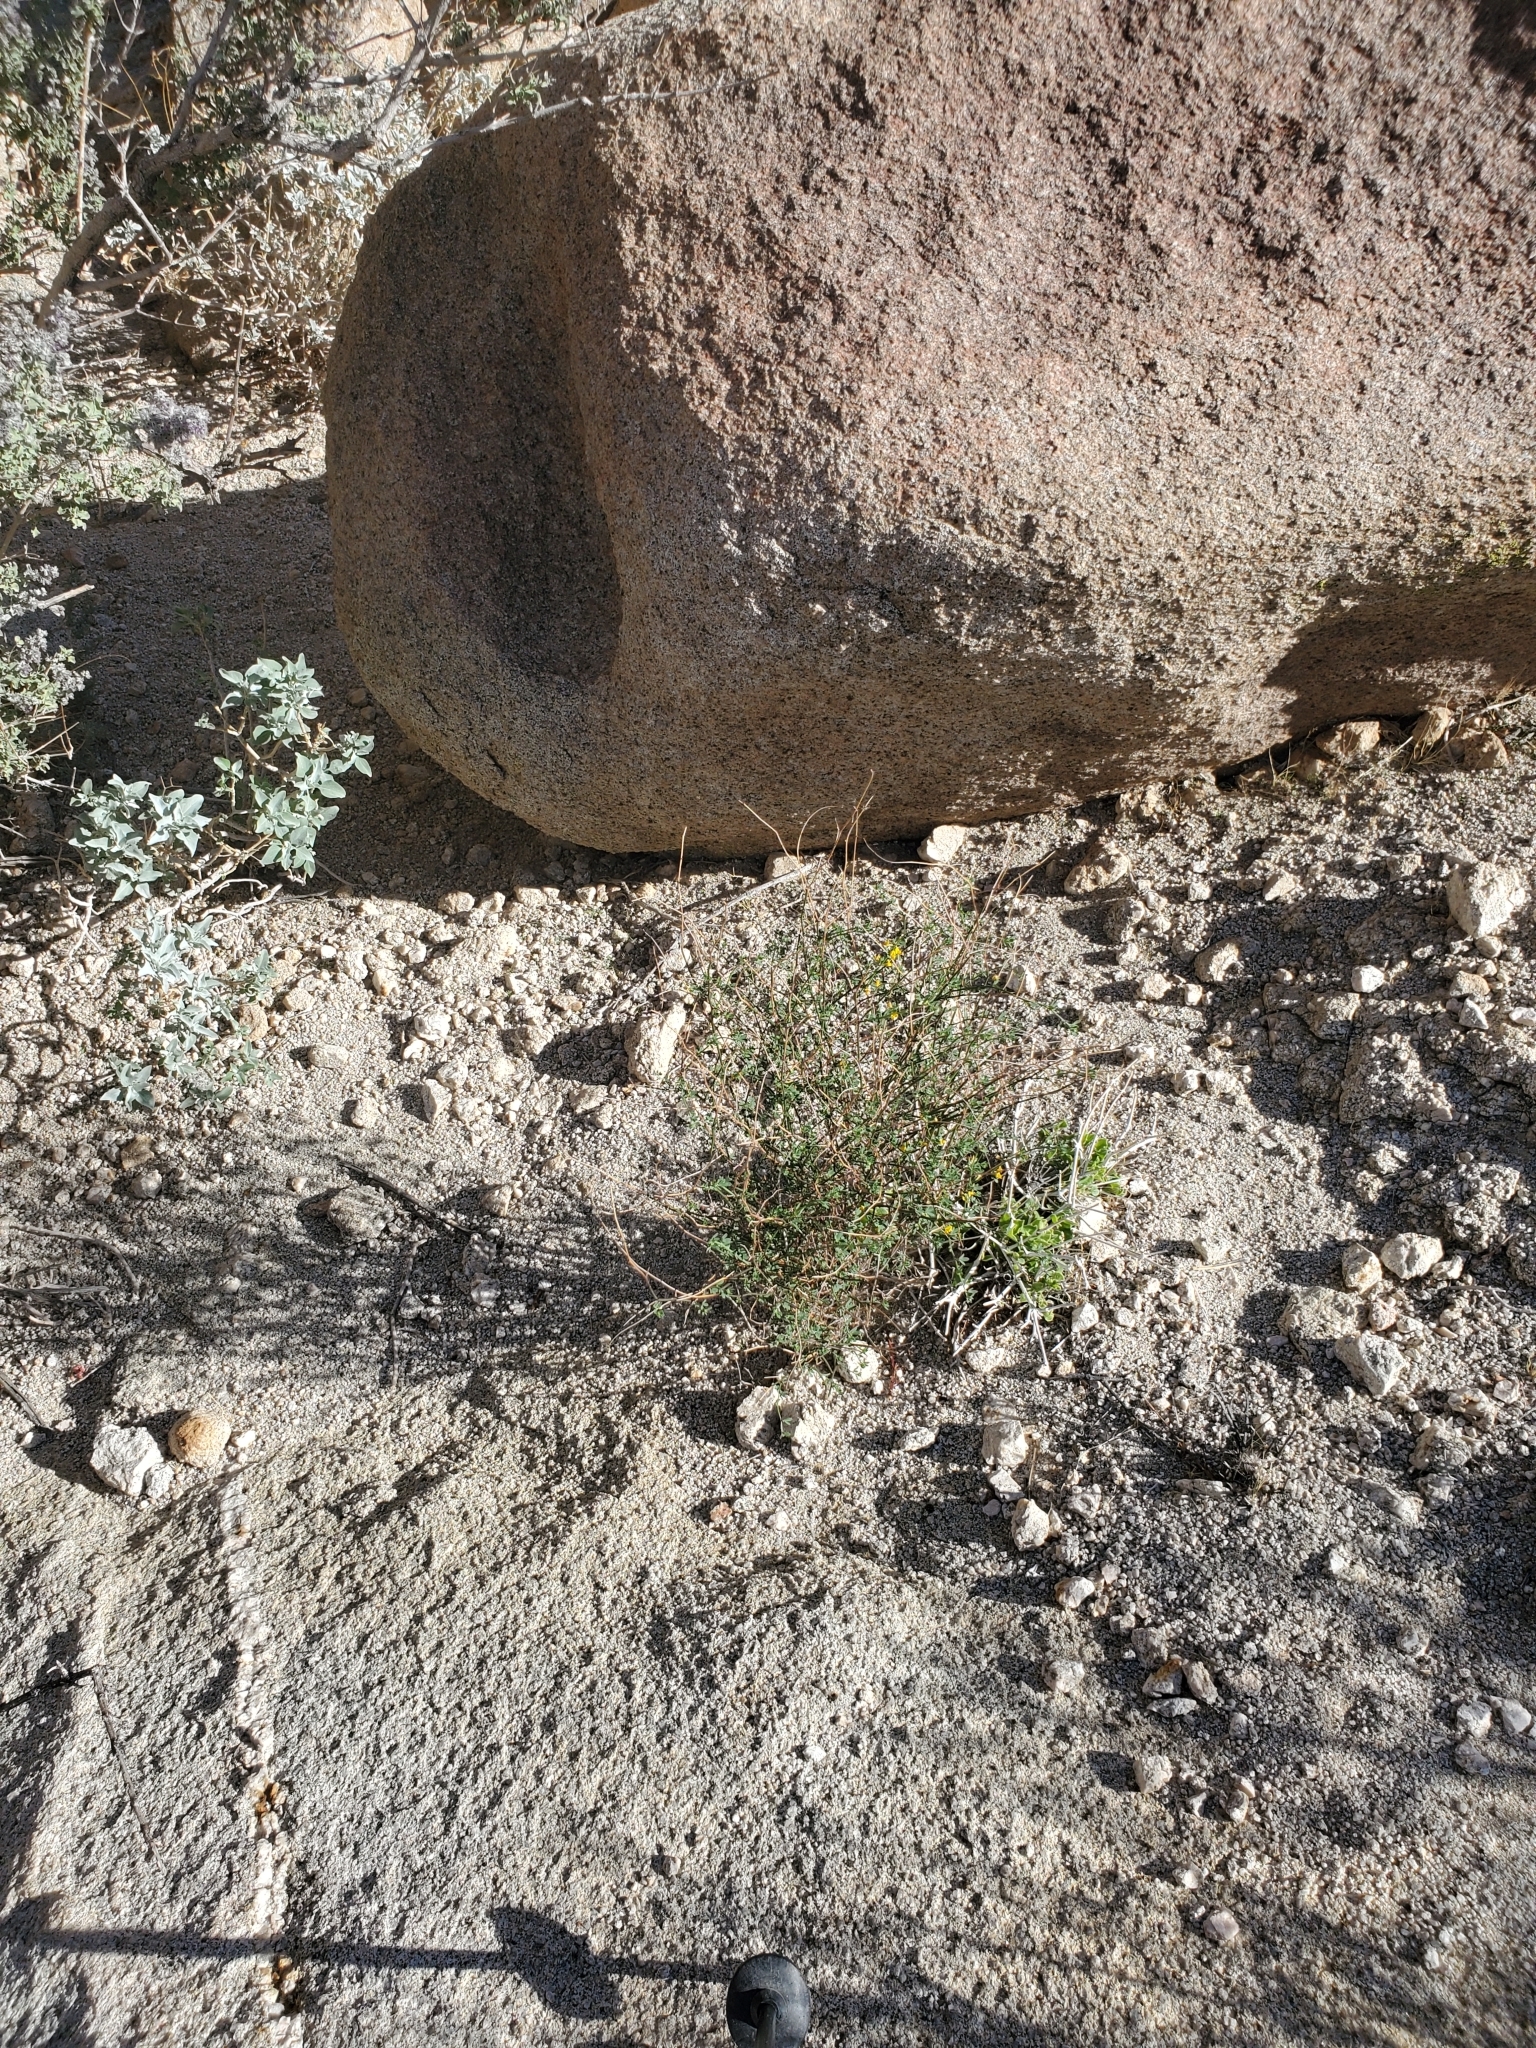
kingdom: Plantae
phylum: Tracheophyta
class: Magnoliopsida
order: Fabales
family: Fabaceae
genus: Acmispon
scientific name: Acmispon glaber
